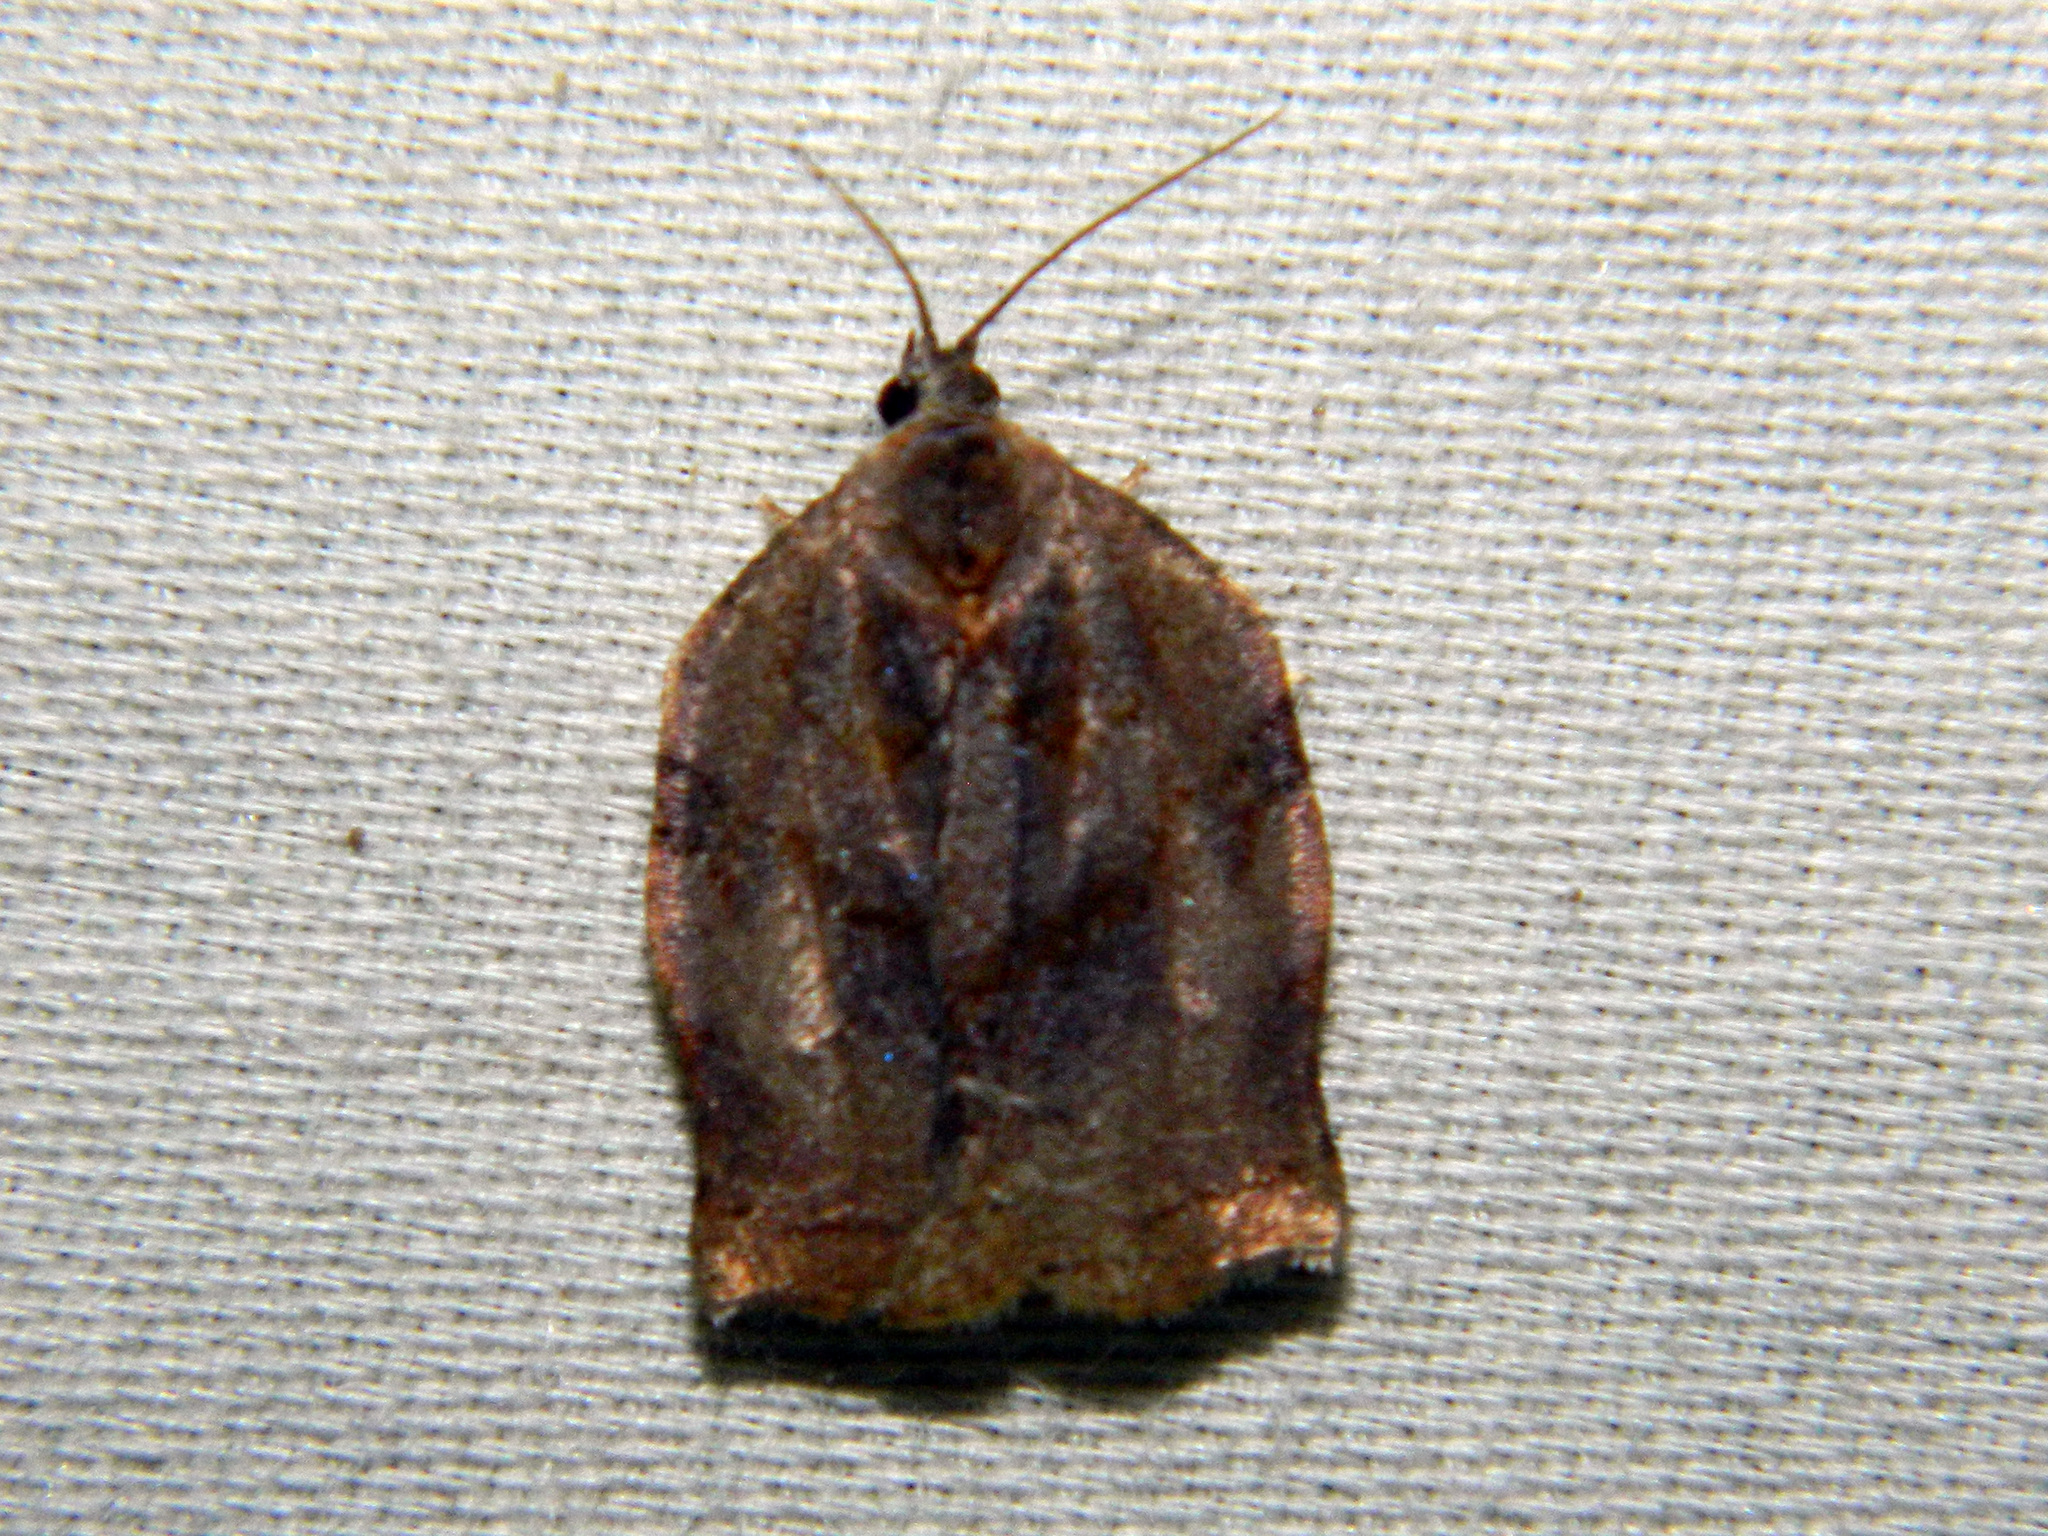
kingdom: Animalia
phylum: Arthropoda
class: Insecta
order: Lepidoptera
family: Tortricidae
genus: Archips
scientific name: Archips purpurana
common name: Omnivorous leafroller
